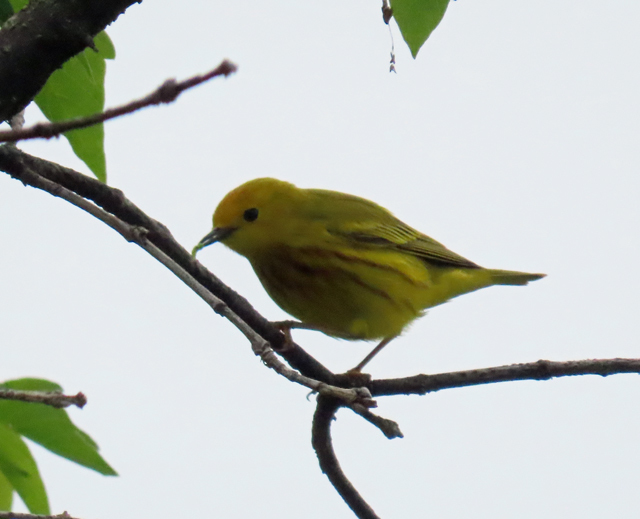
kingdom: Animalia
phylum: Chordata
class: Aves
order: Passeriformes
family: Parulidae
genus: Setophaga
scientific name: Setophaga petechia
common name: Yellow warbler
